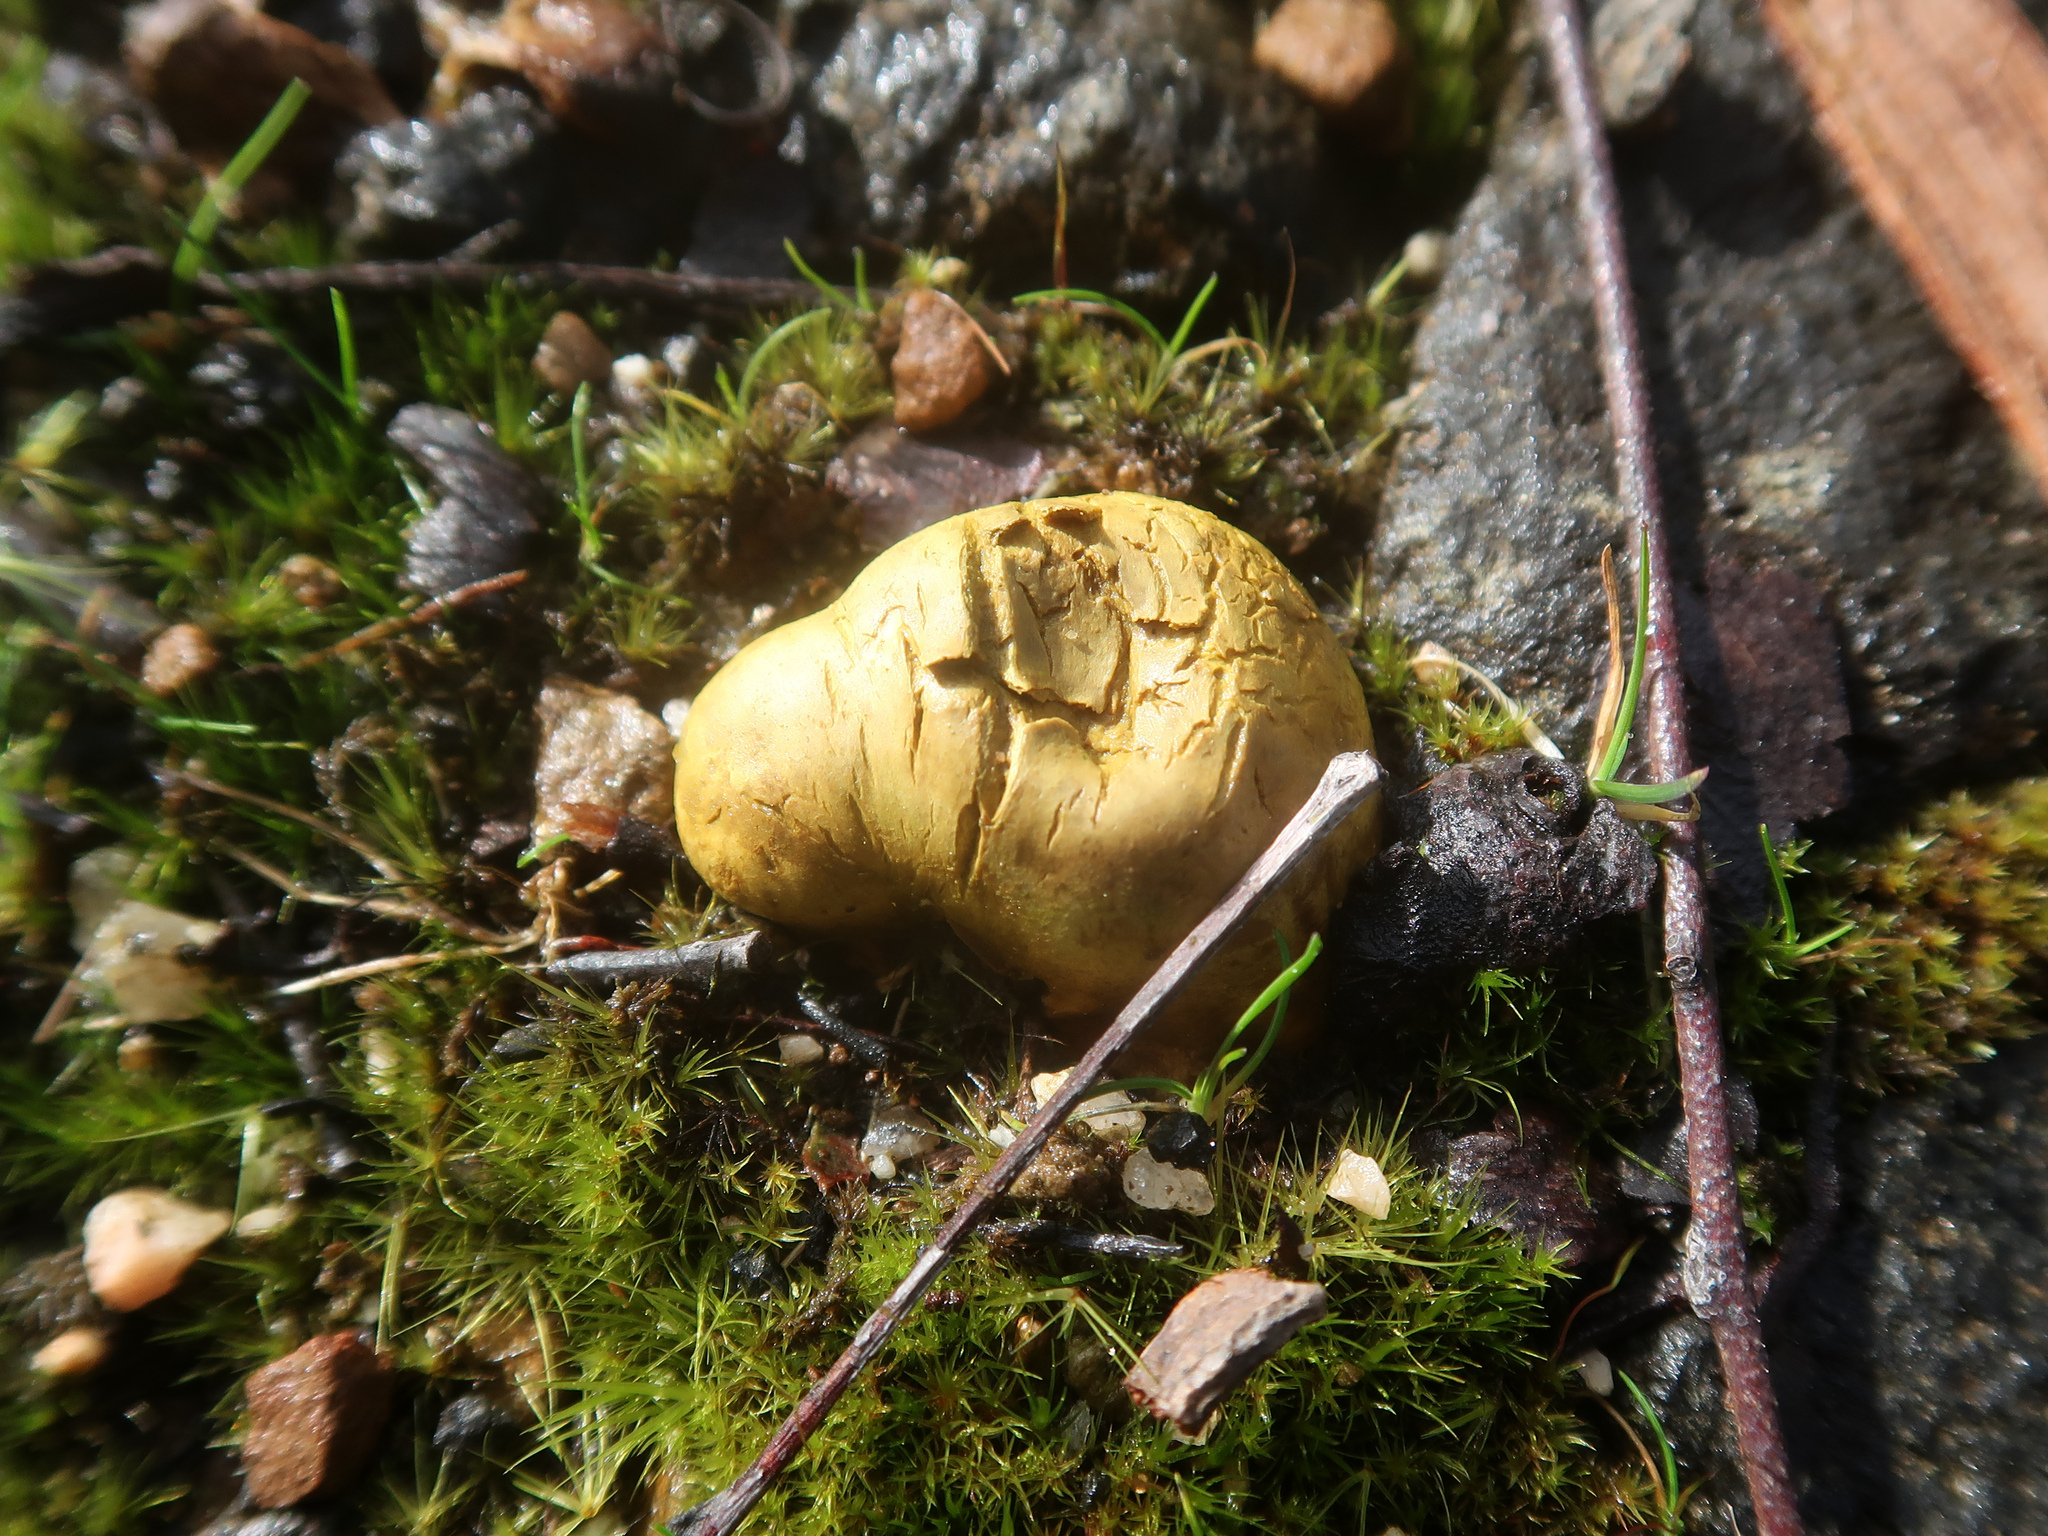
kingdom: Fungi
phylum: Basidiomycota
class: Agaricomycetes
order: Boletales
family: Sclerodermataceae
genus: Scleroderma
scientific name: Scleroderma cepa
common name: Onion earthball
